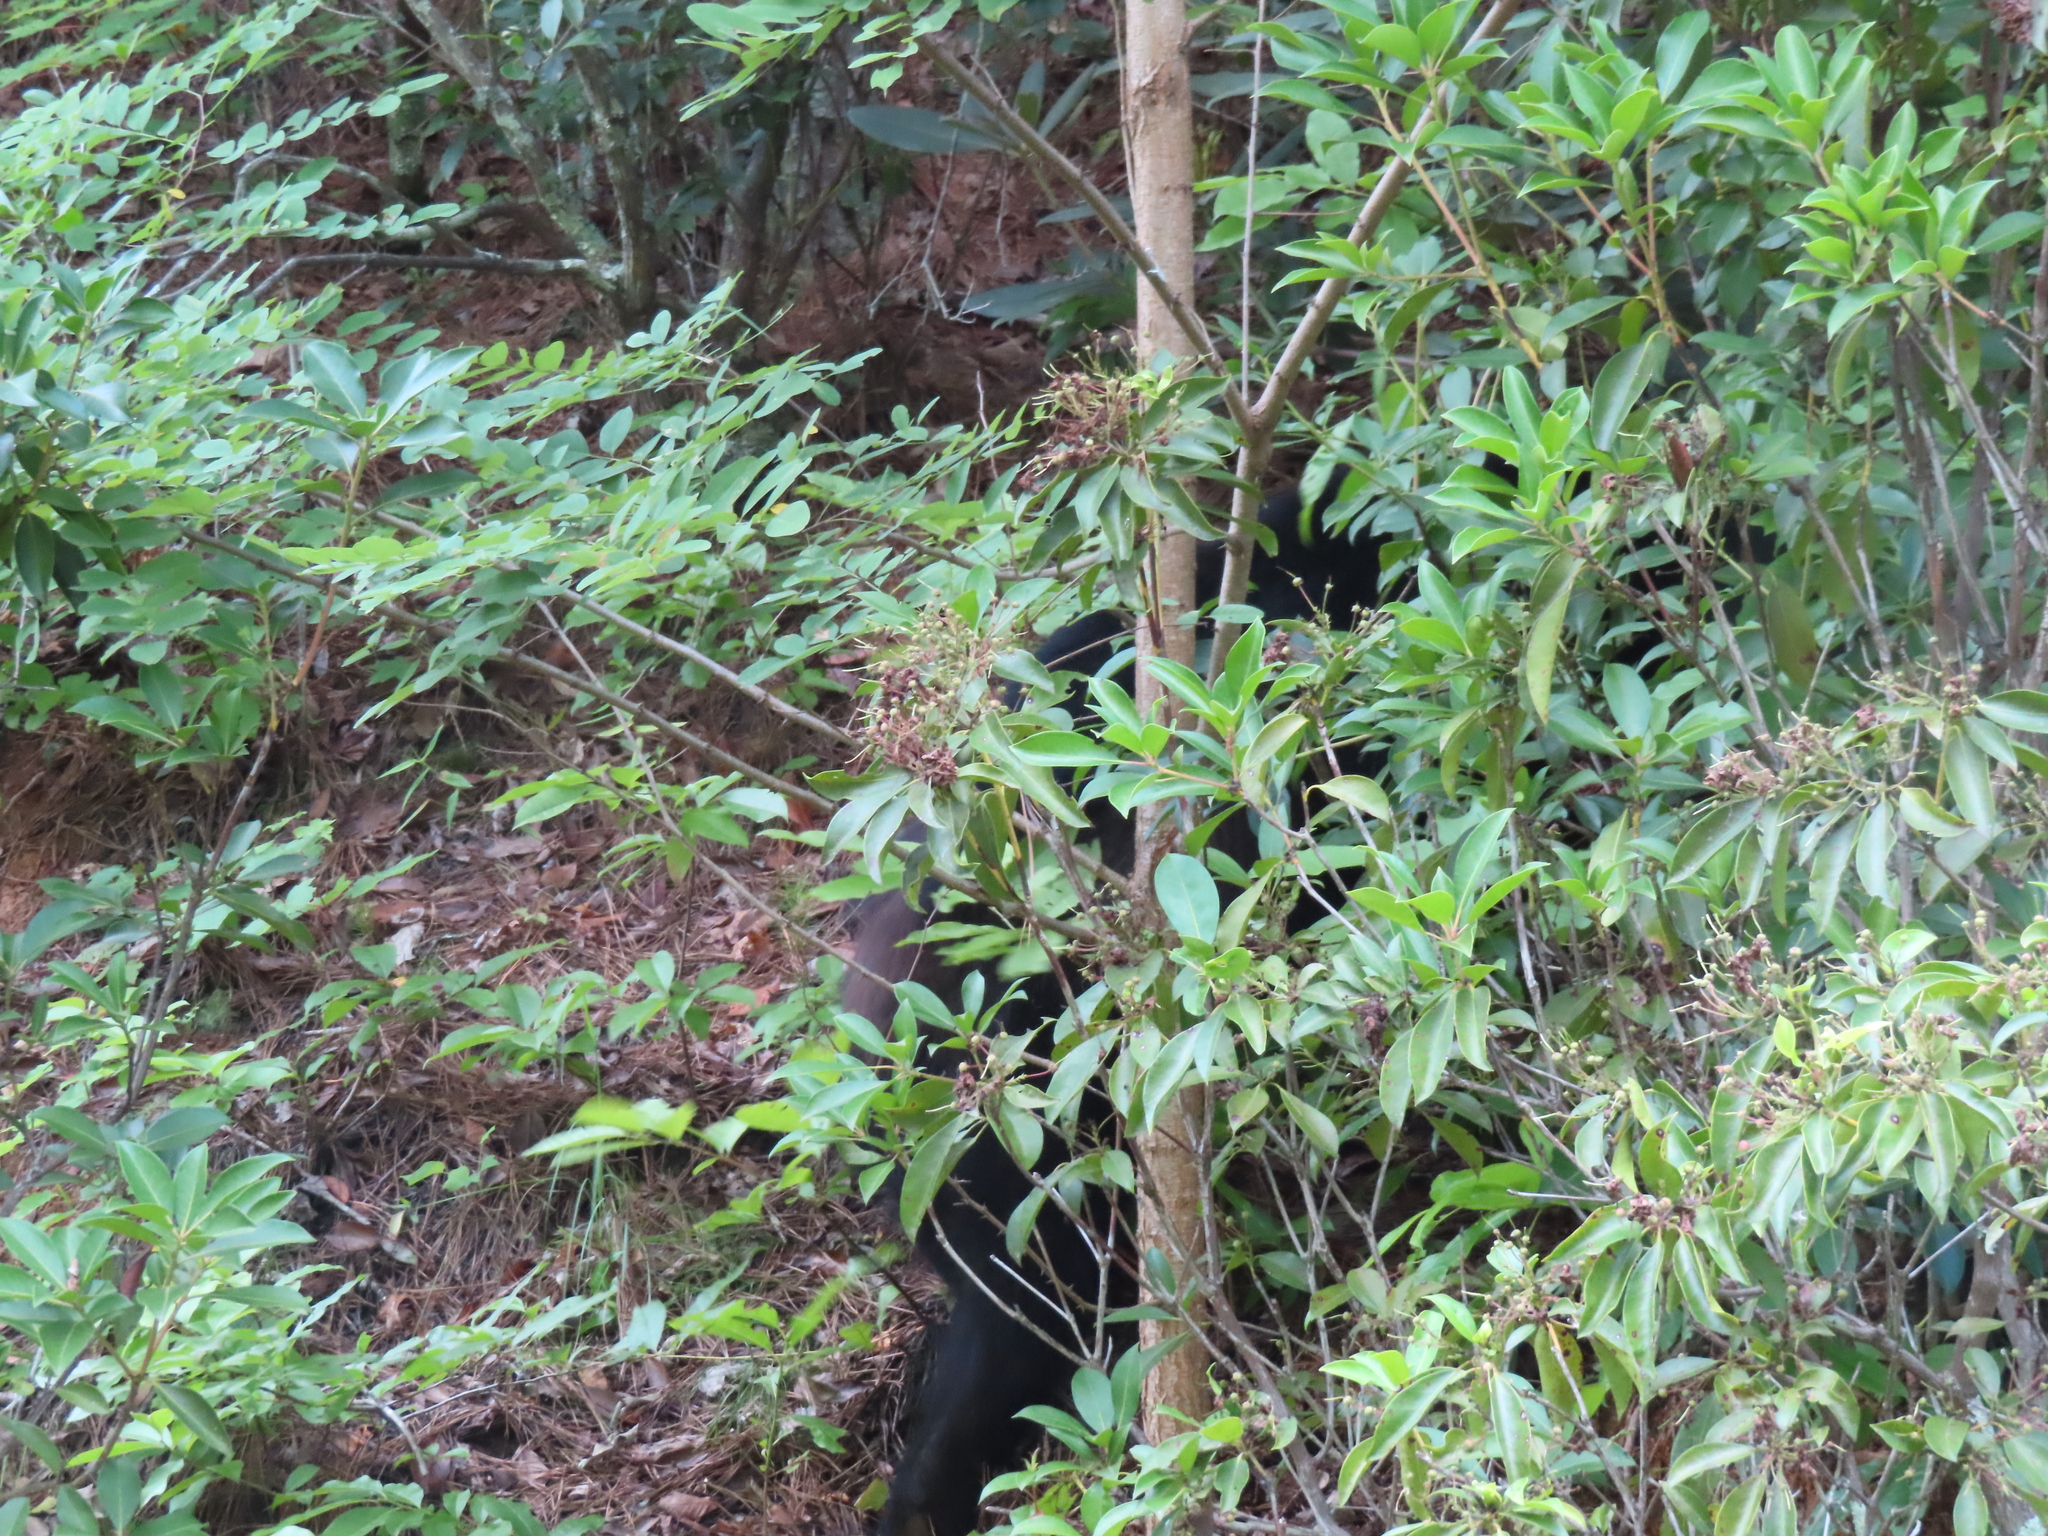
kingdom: Animalia
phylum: Chordata
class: Mammalia
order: Carnivora
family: Ursidae
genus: Ursus
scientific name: Ursus americanus
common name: American black bear
